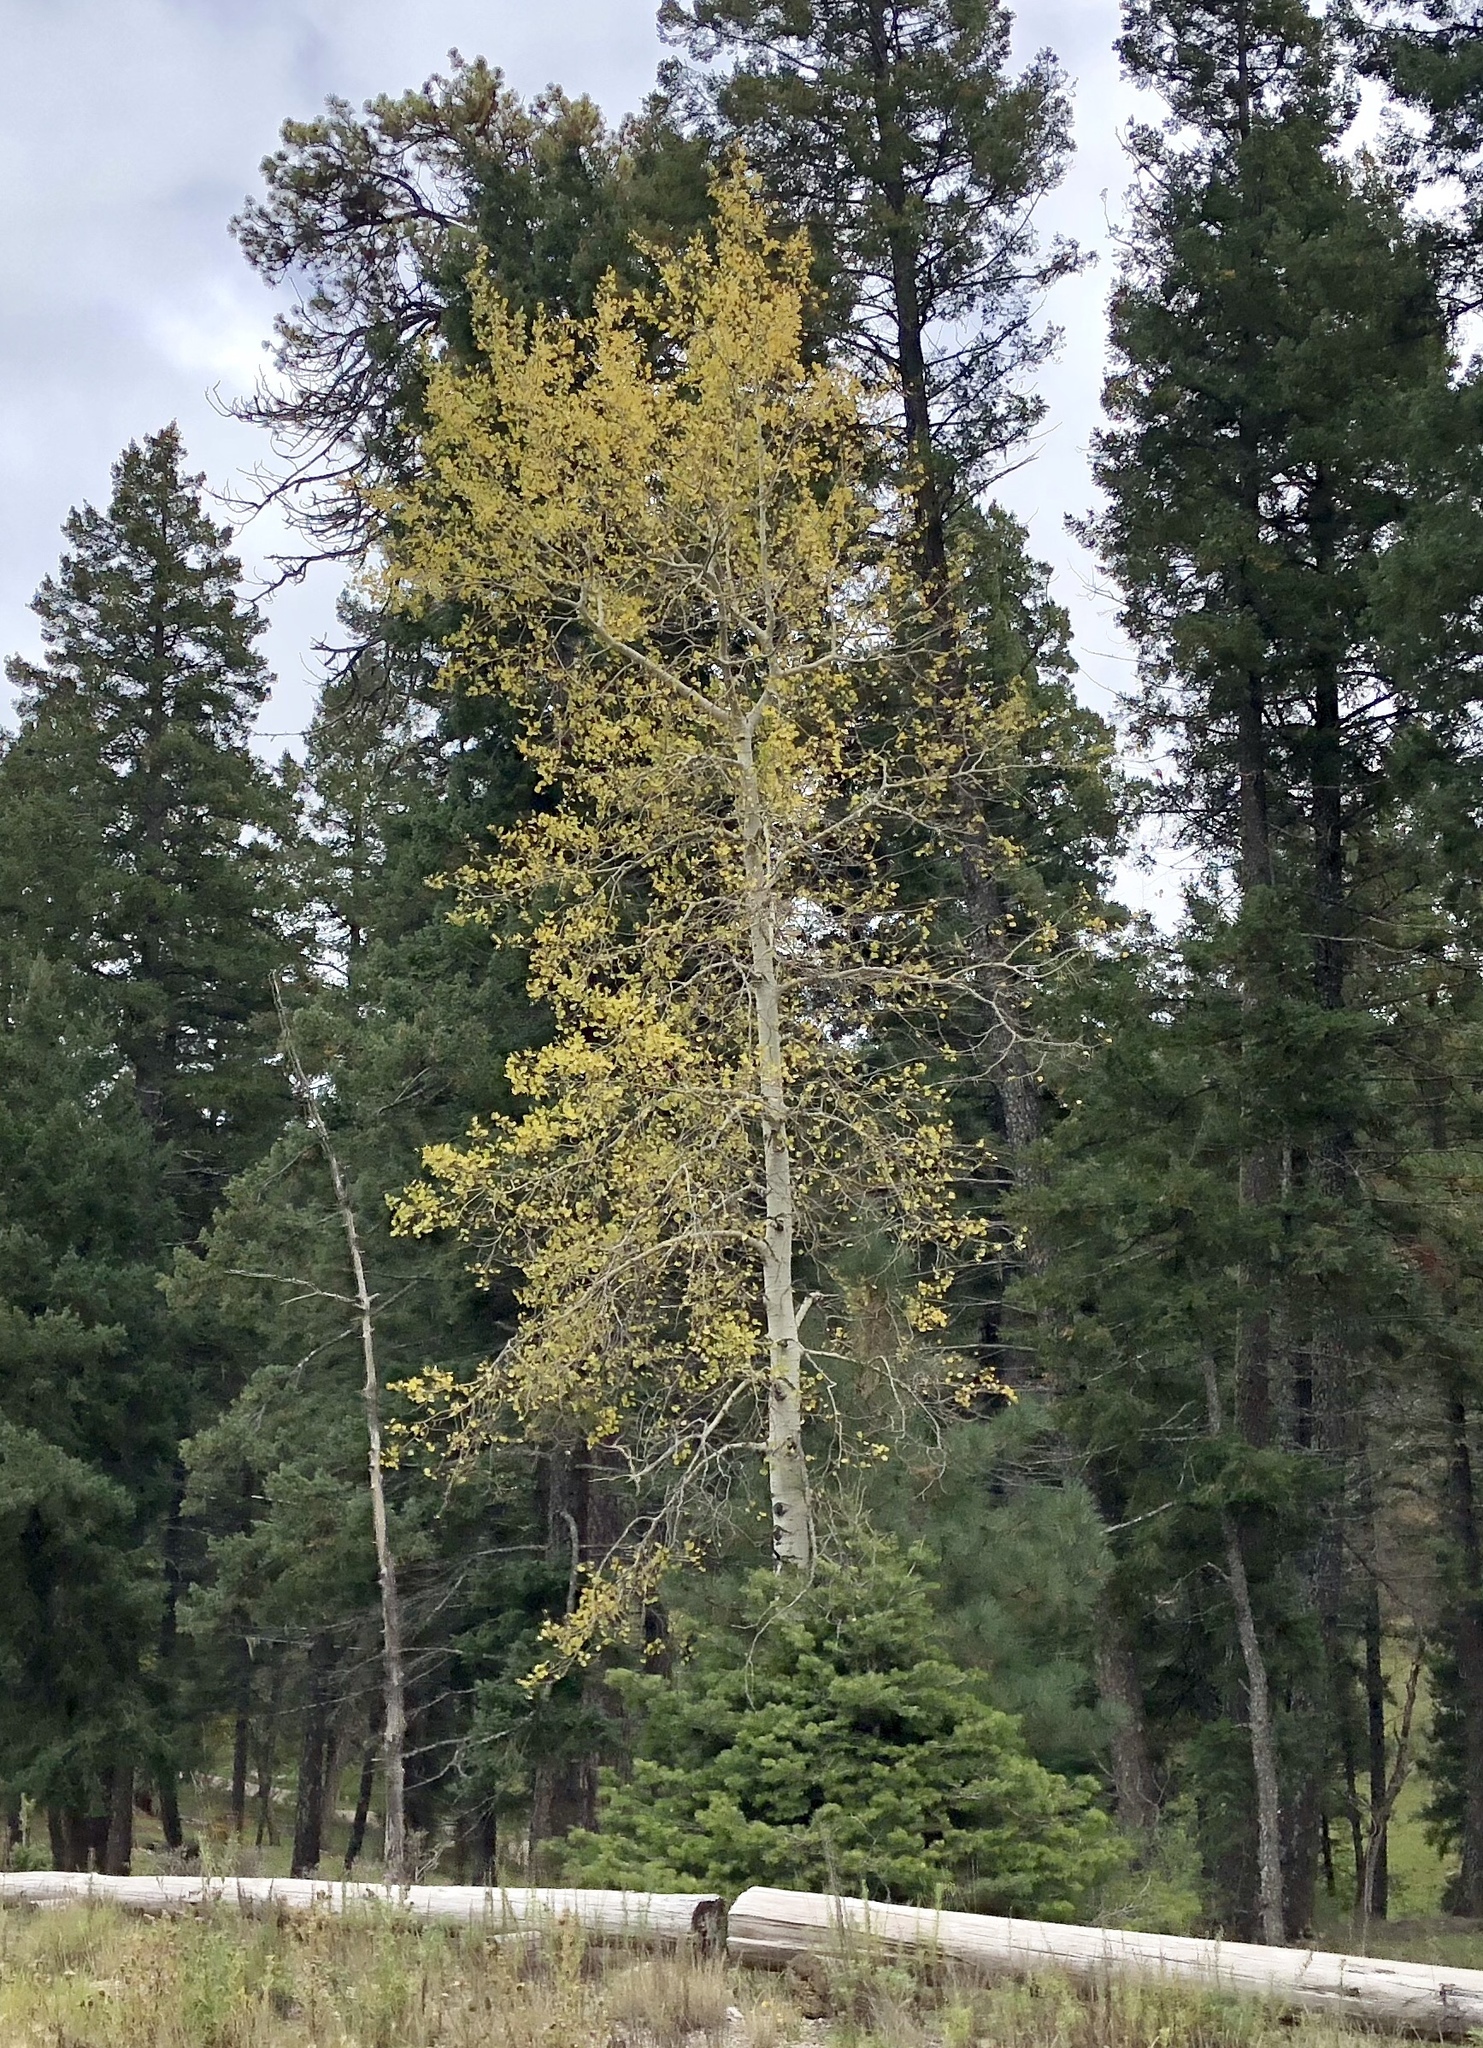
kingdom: Plantae
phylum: Tracheophyta
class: Magnoliopsida
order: Malpighiales
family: Salicaceae
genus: Populus
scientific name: Populus tremuloides
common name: Quaking aspen
